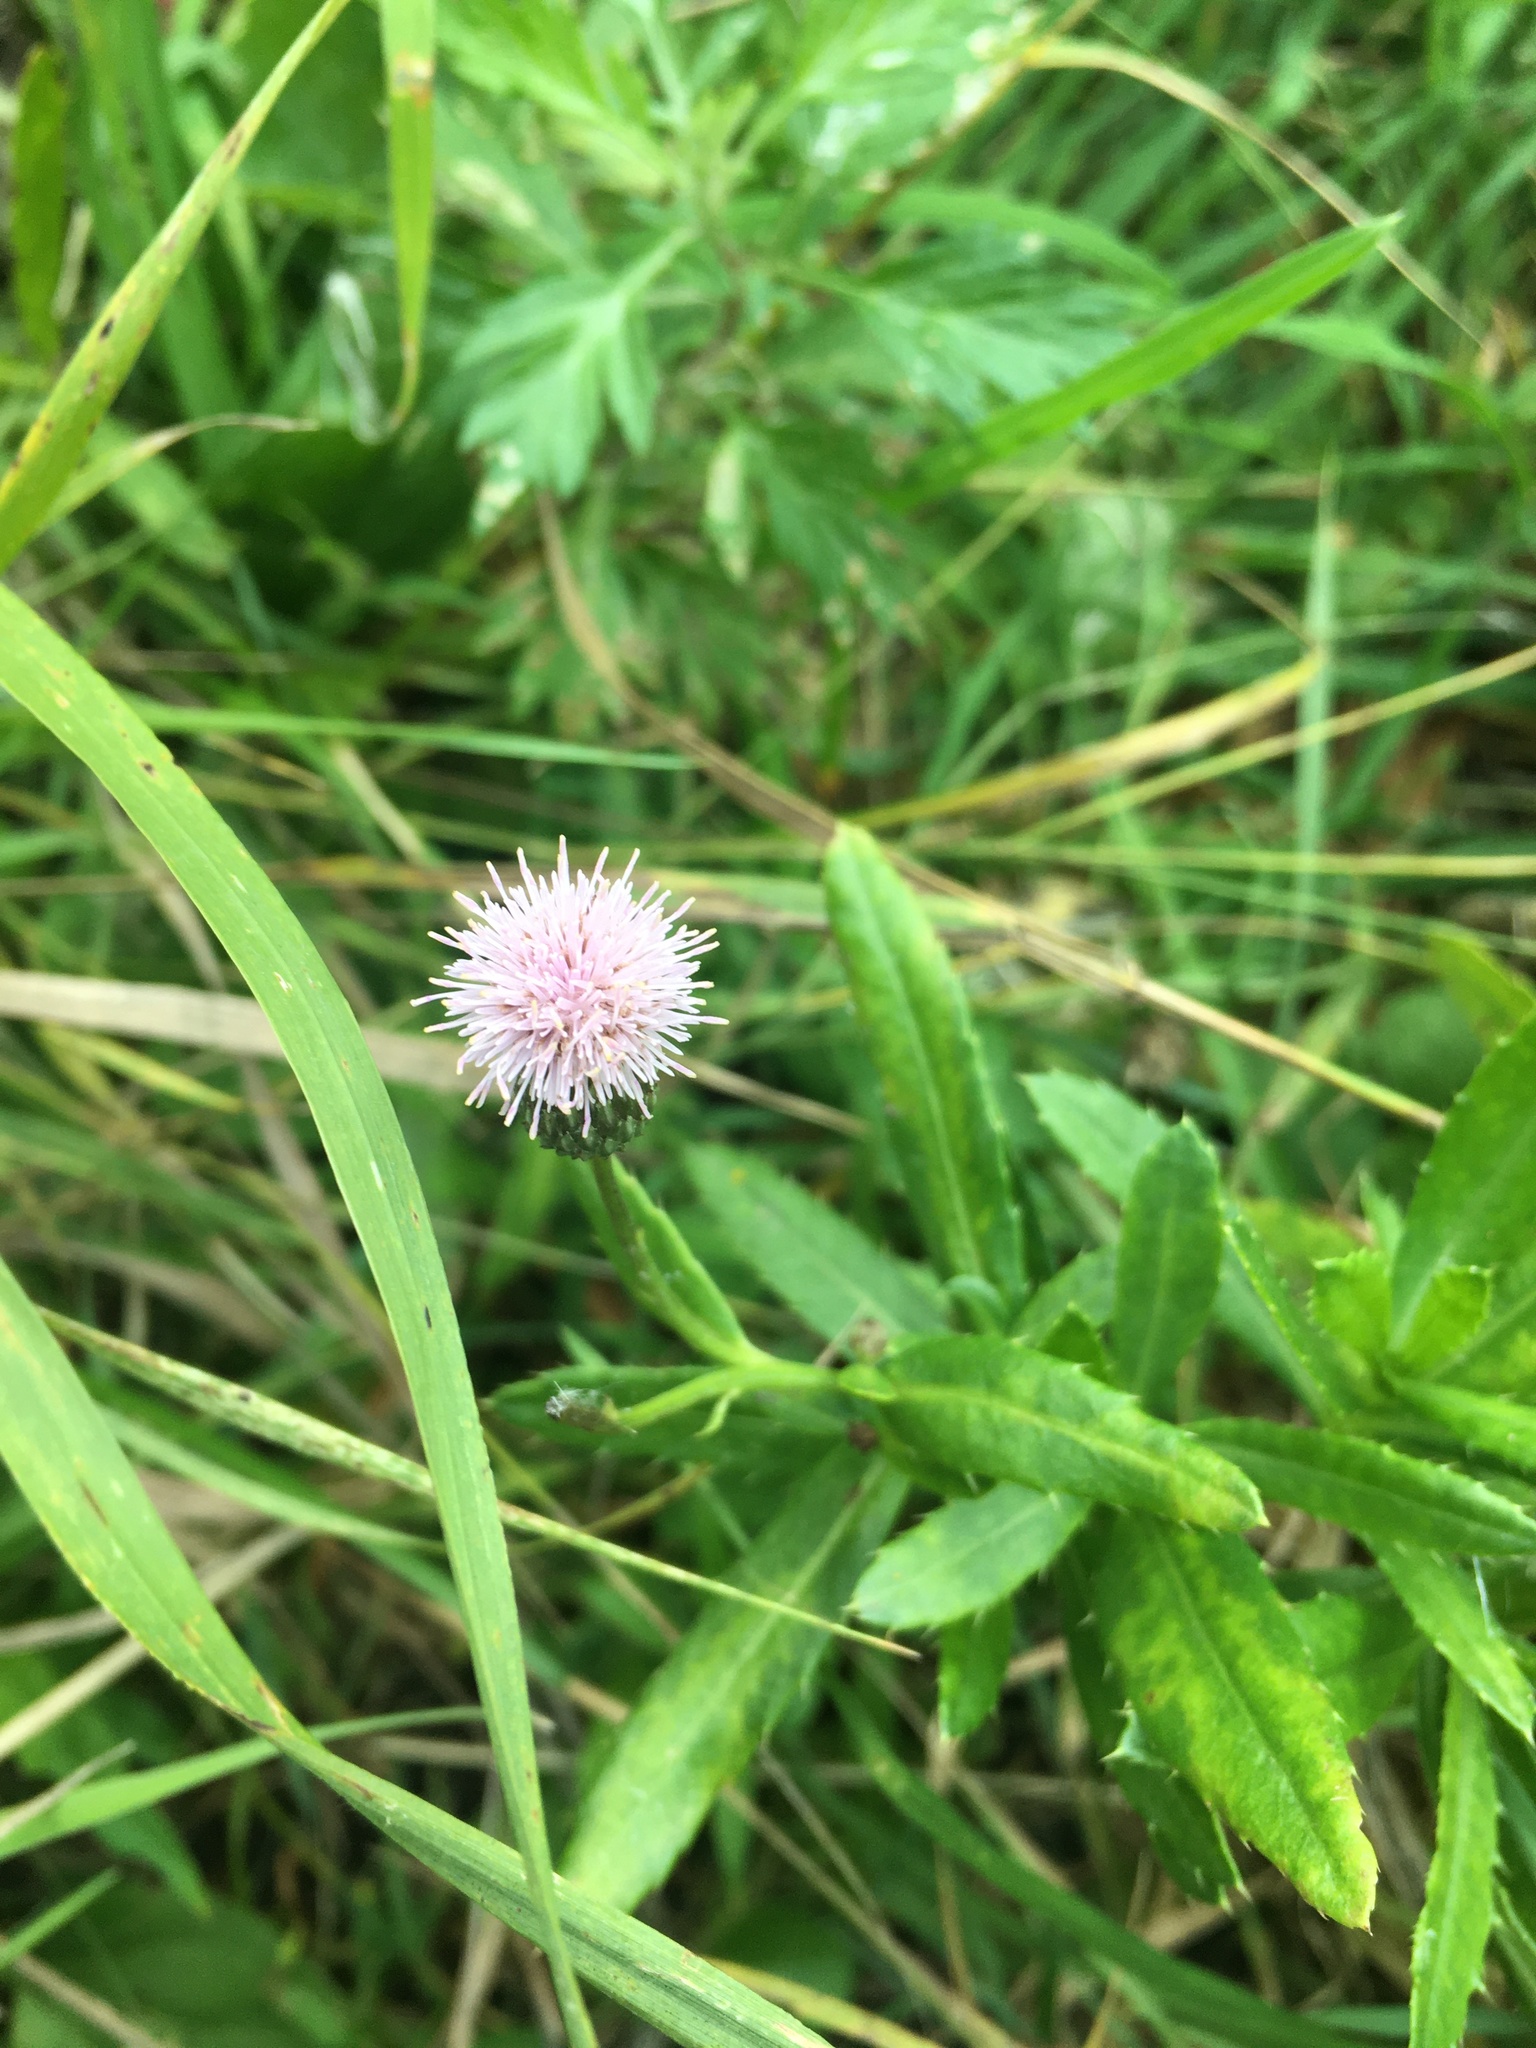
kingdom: Plantae
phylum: Tracheophyta
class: Magnoliopsida
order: Asterales
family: Asteraceae
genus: Cirsium
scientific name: Cirsium arvense
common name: Creeping thistle
